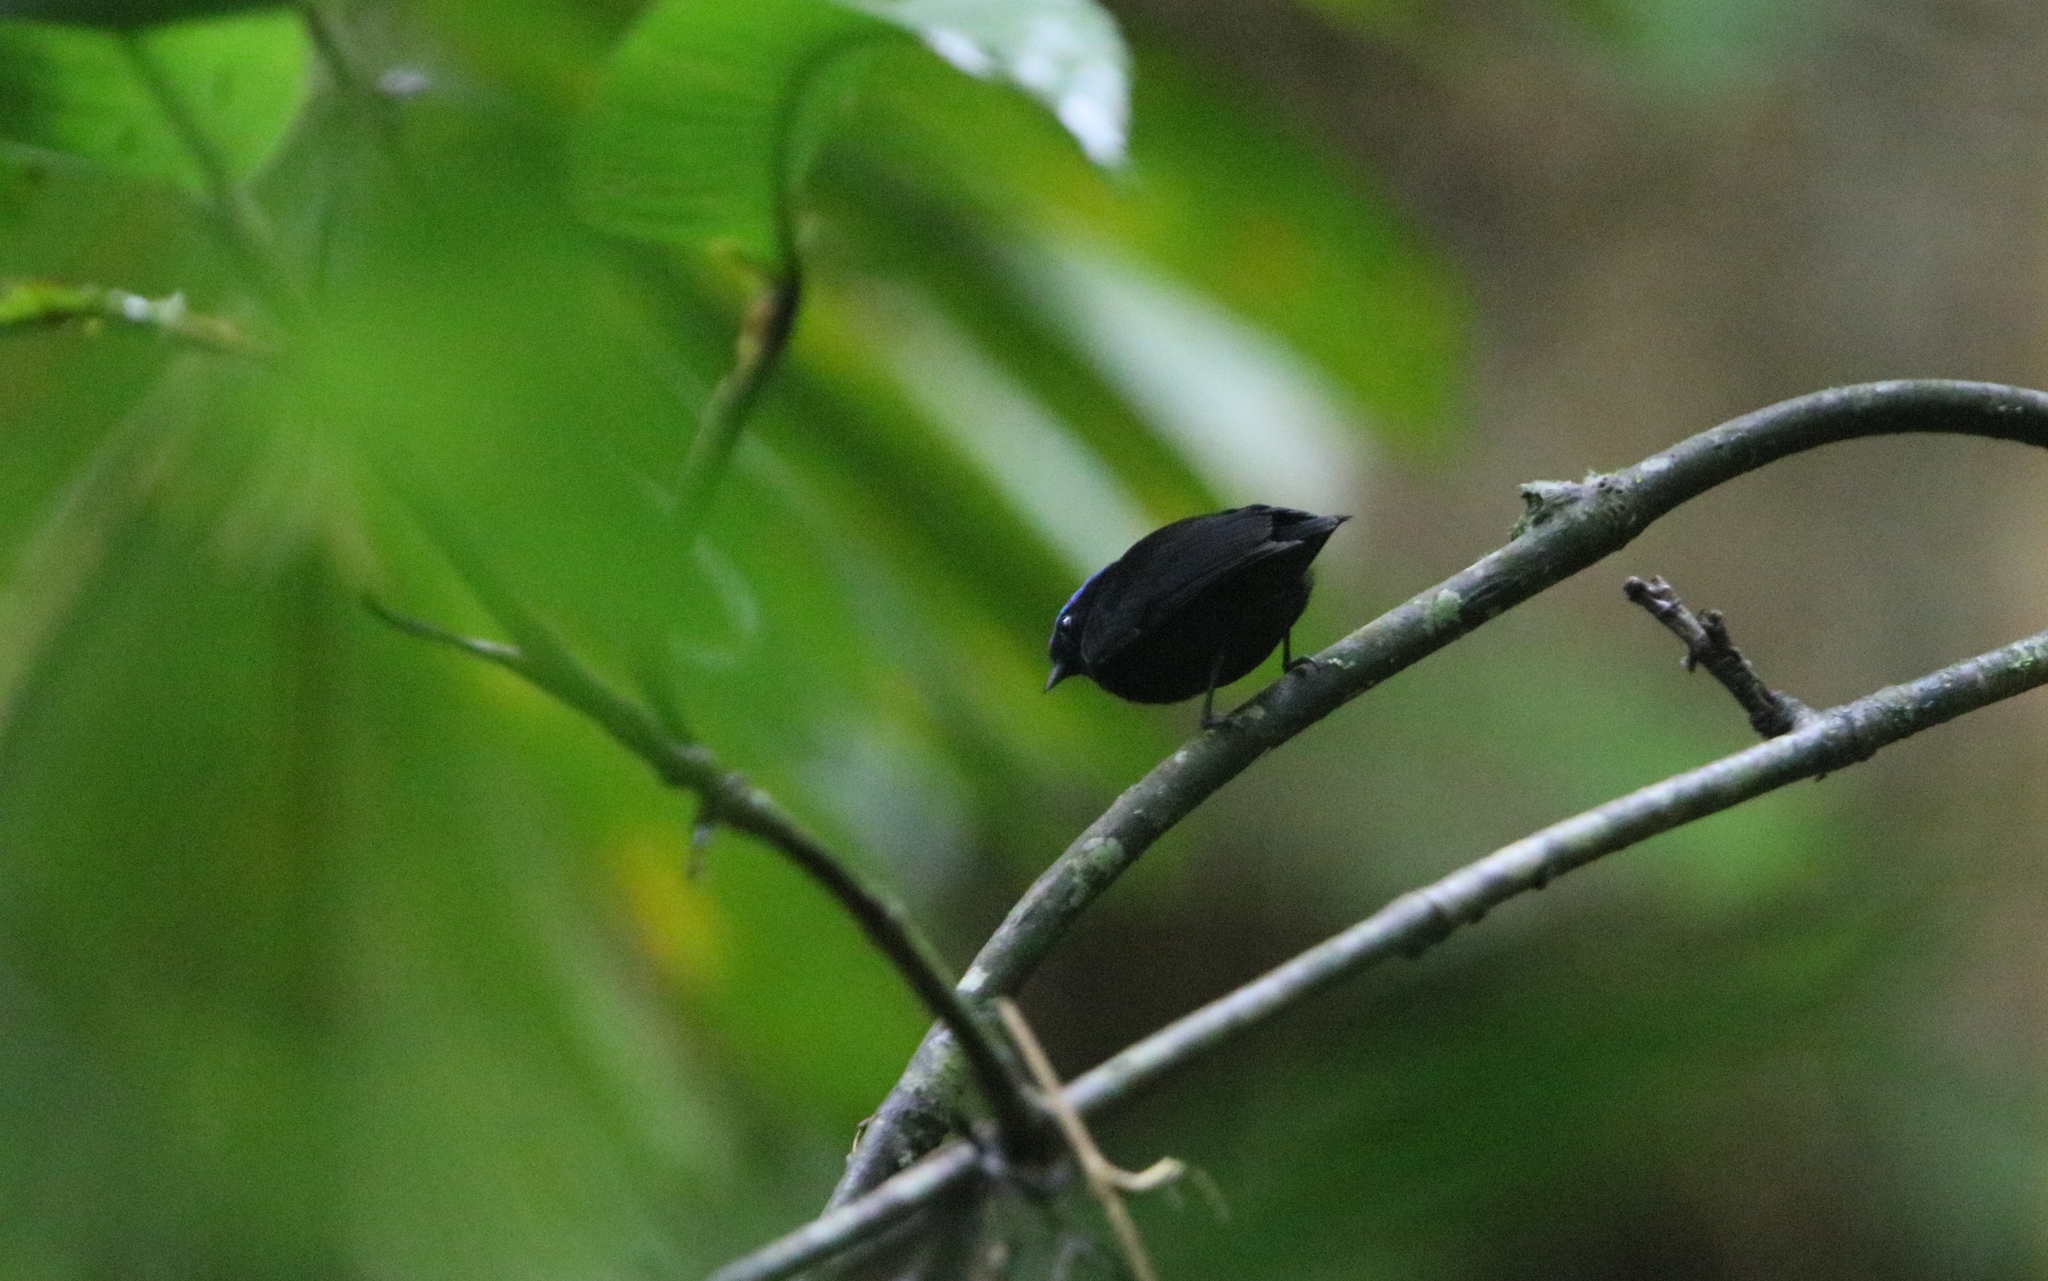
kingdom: Animalia
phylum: Chordata
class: Aves
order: Passeriformes
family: Pipridae
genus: Lepidothrix
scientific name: Lepidothrix coronata
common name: Blue-crowned manakin
